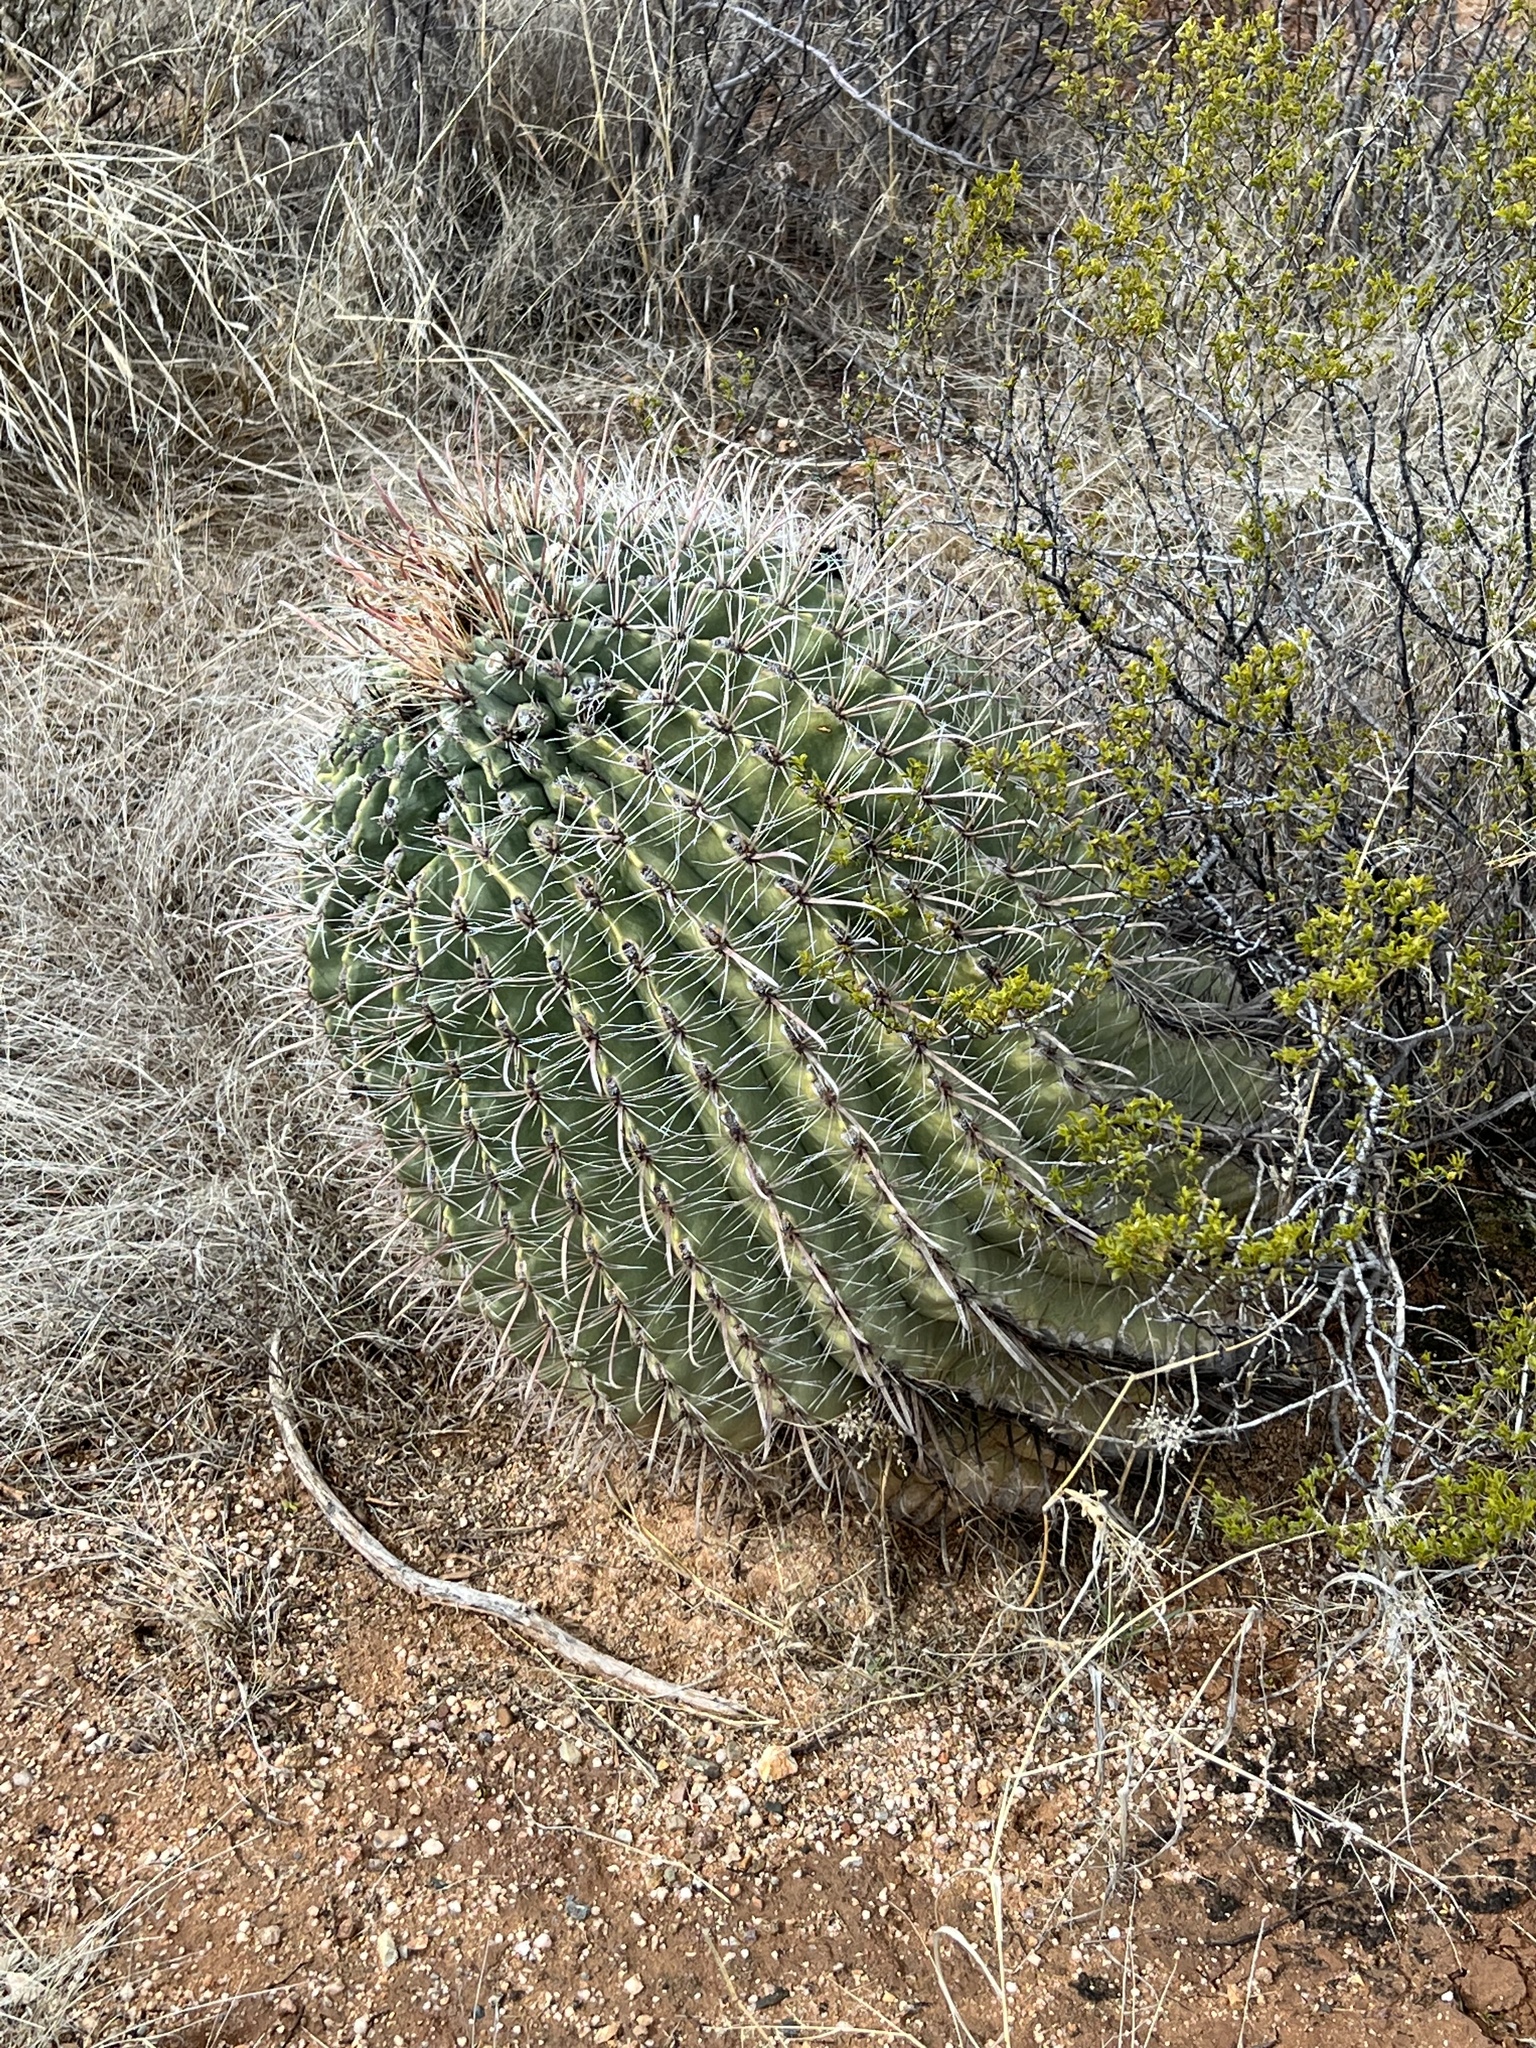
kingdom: Plantae
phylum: Tracheophyta
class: Magnoliopsida
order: Caryophyllales
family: Cactaceae
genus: Ferocactus
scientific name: Ferocactus wislizeni
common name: Candy barrel cactus
